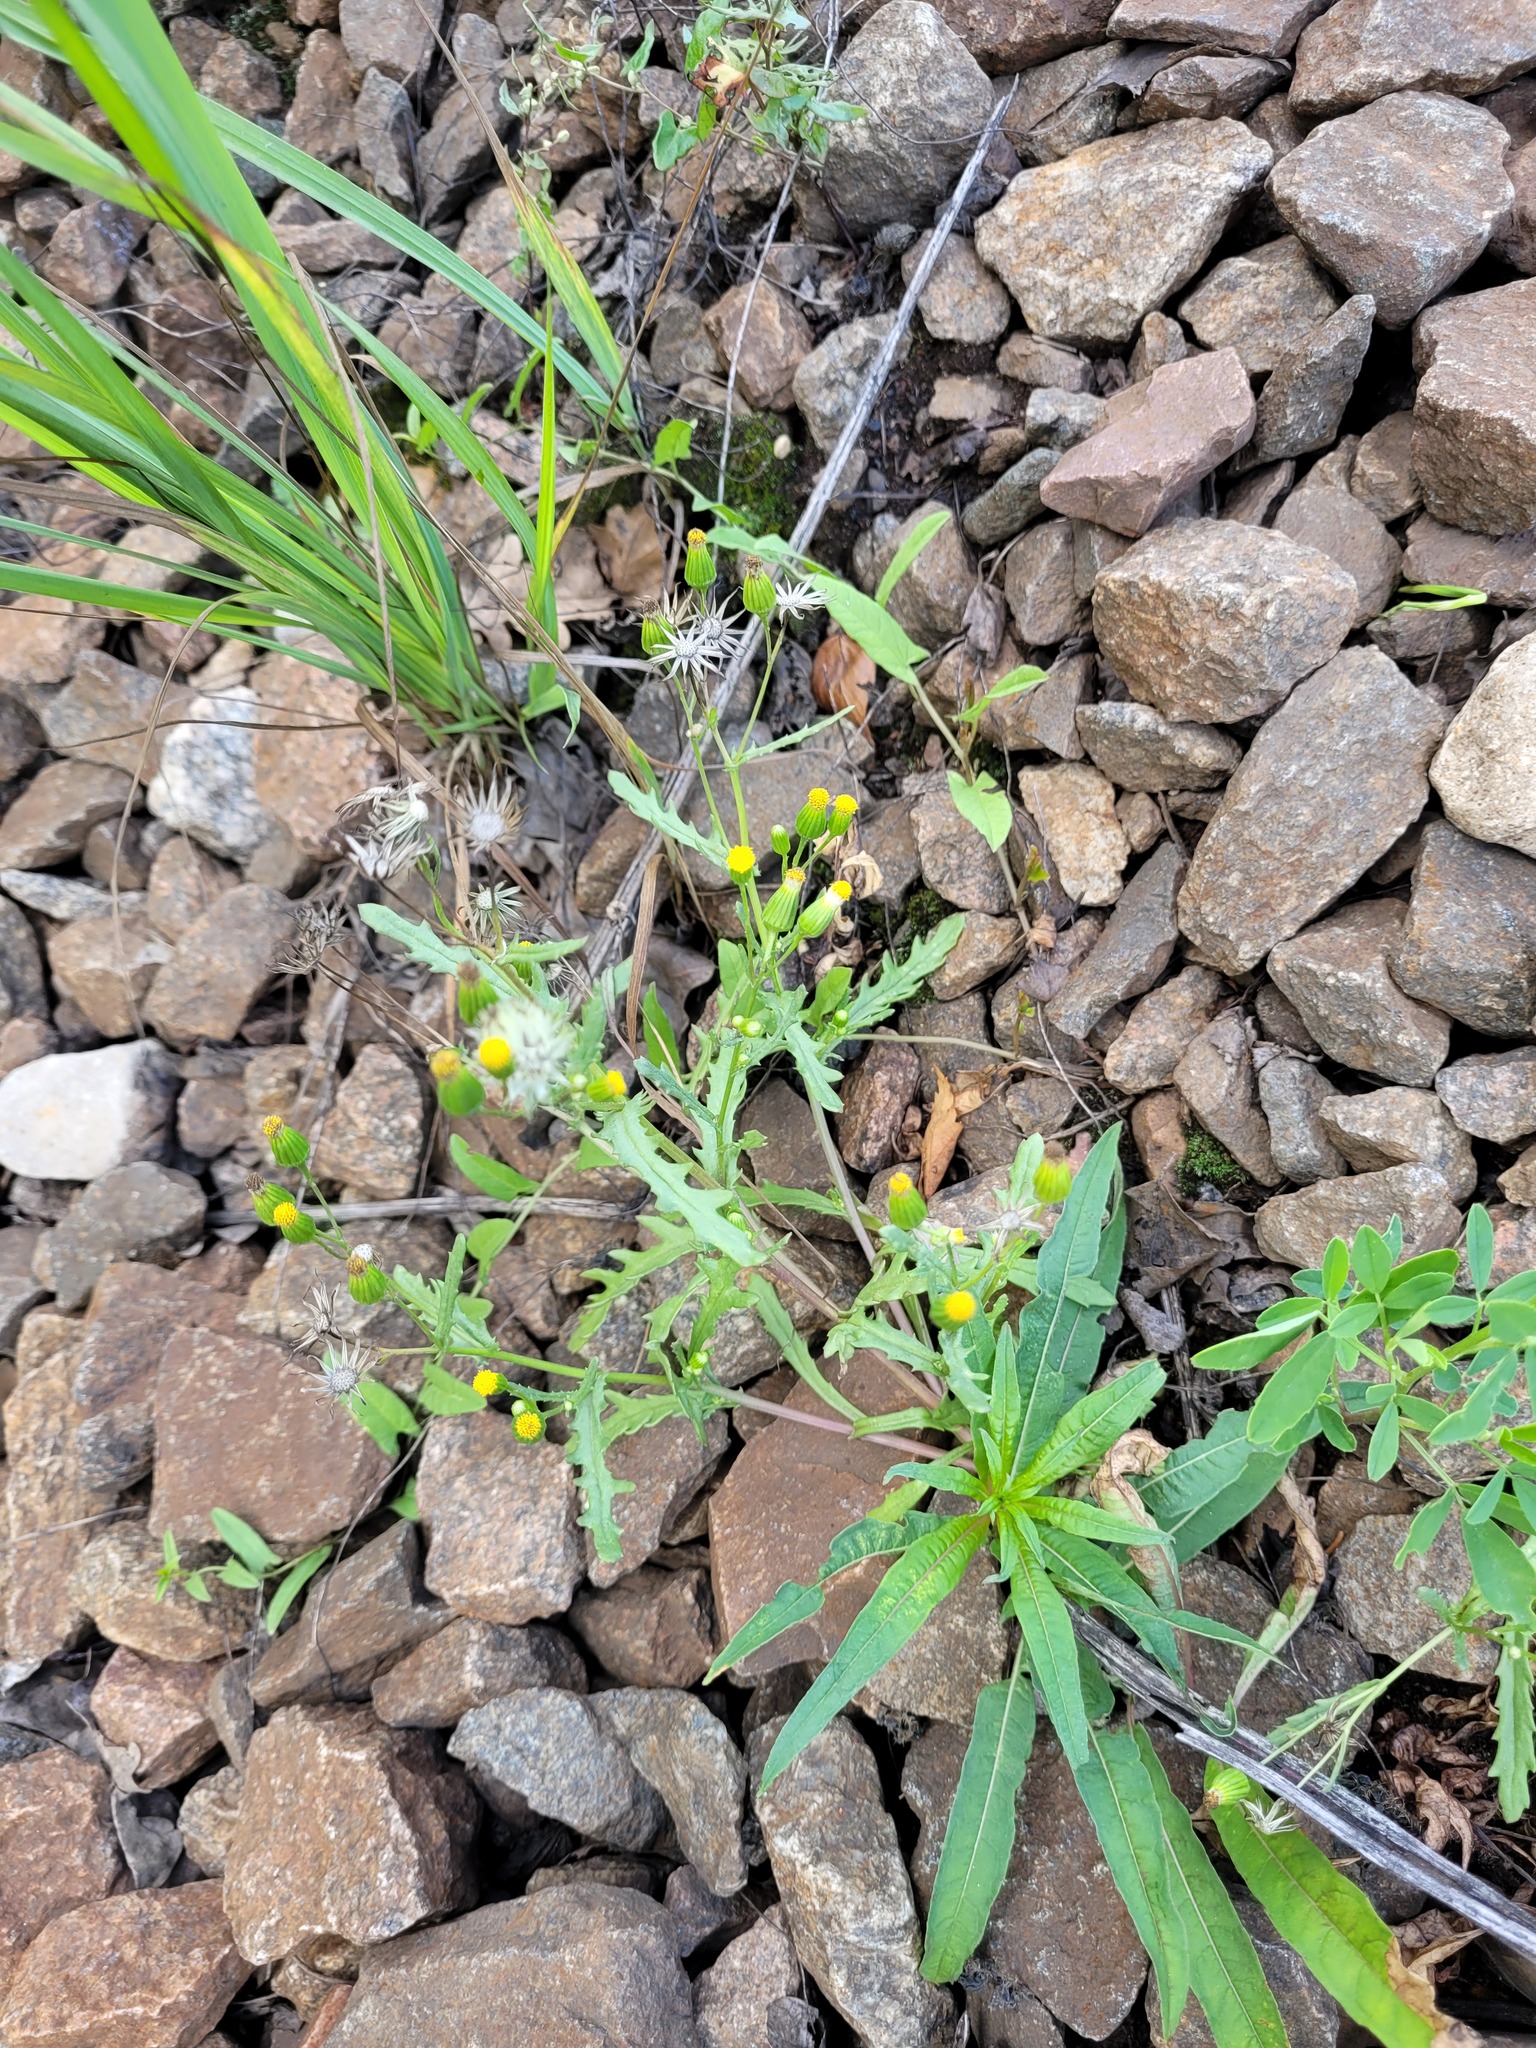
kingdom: Plantae
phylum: Tracheophyta
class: Magnoliopsida
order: Asterales
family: Asteraceae
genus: Senecio
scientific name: Senecio dubitabilis
